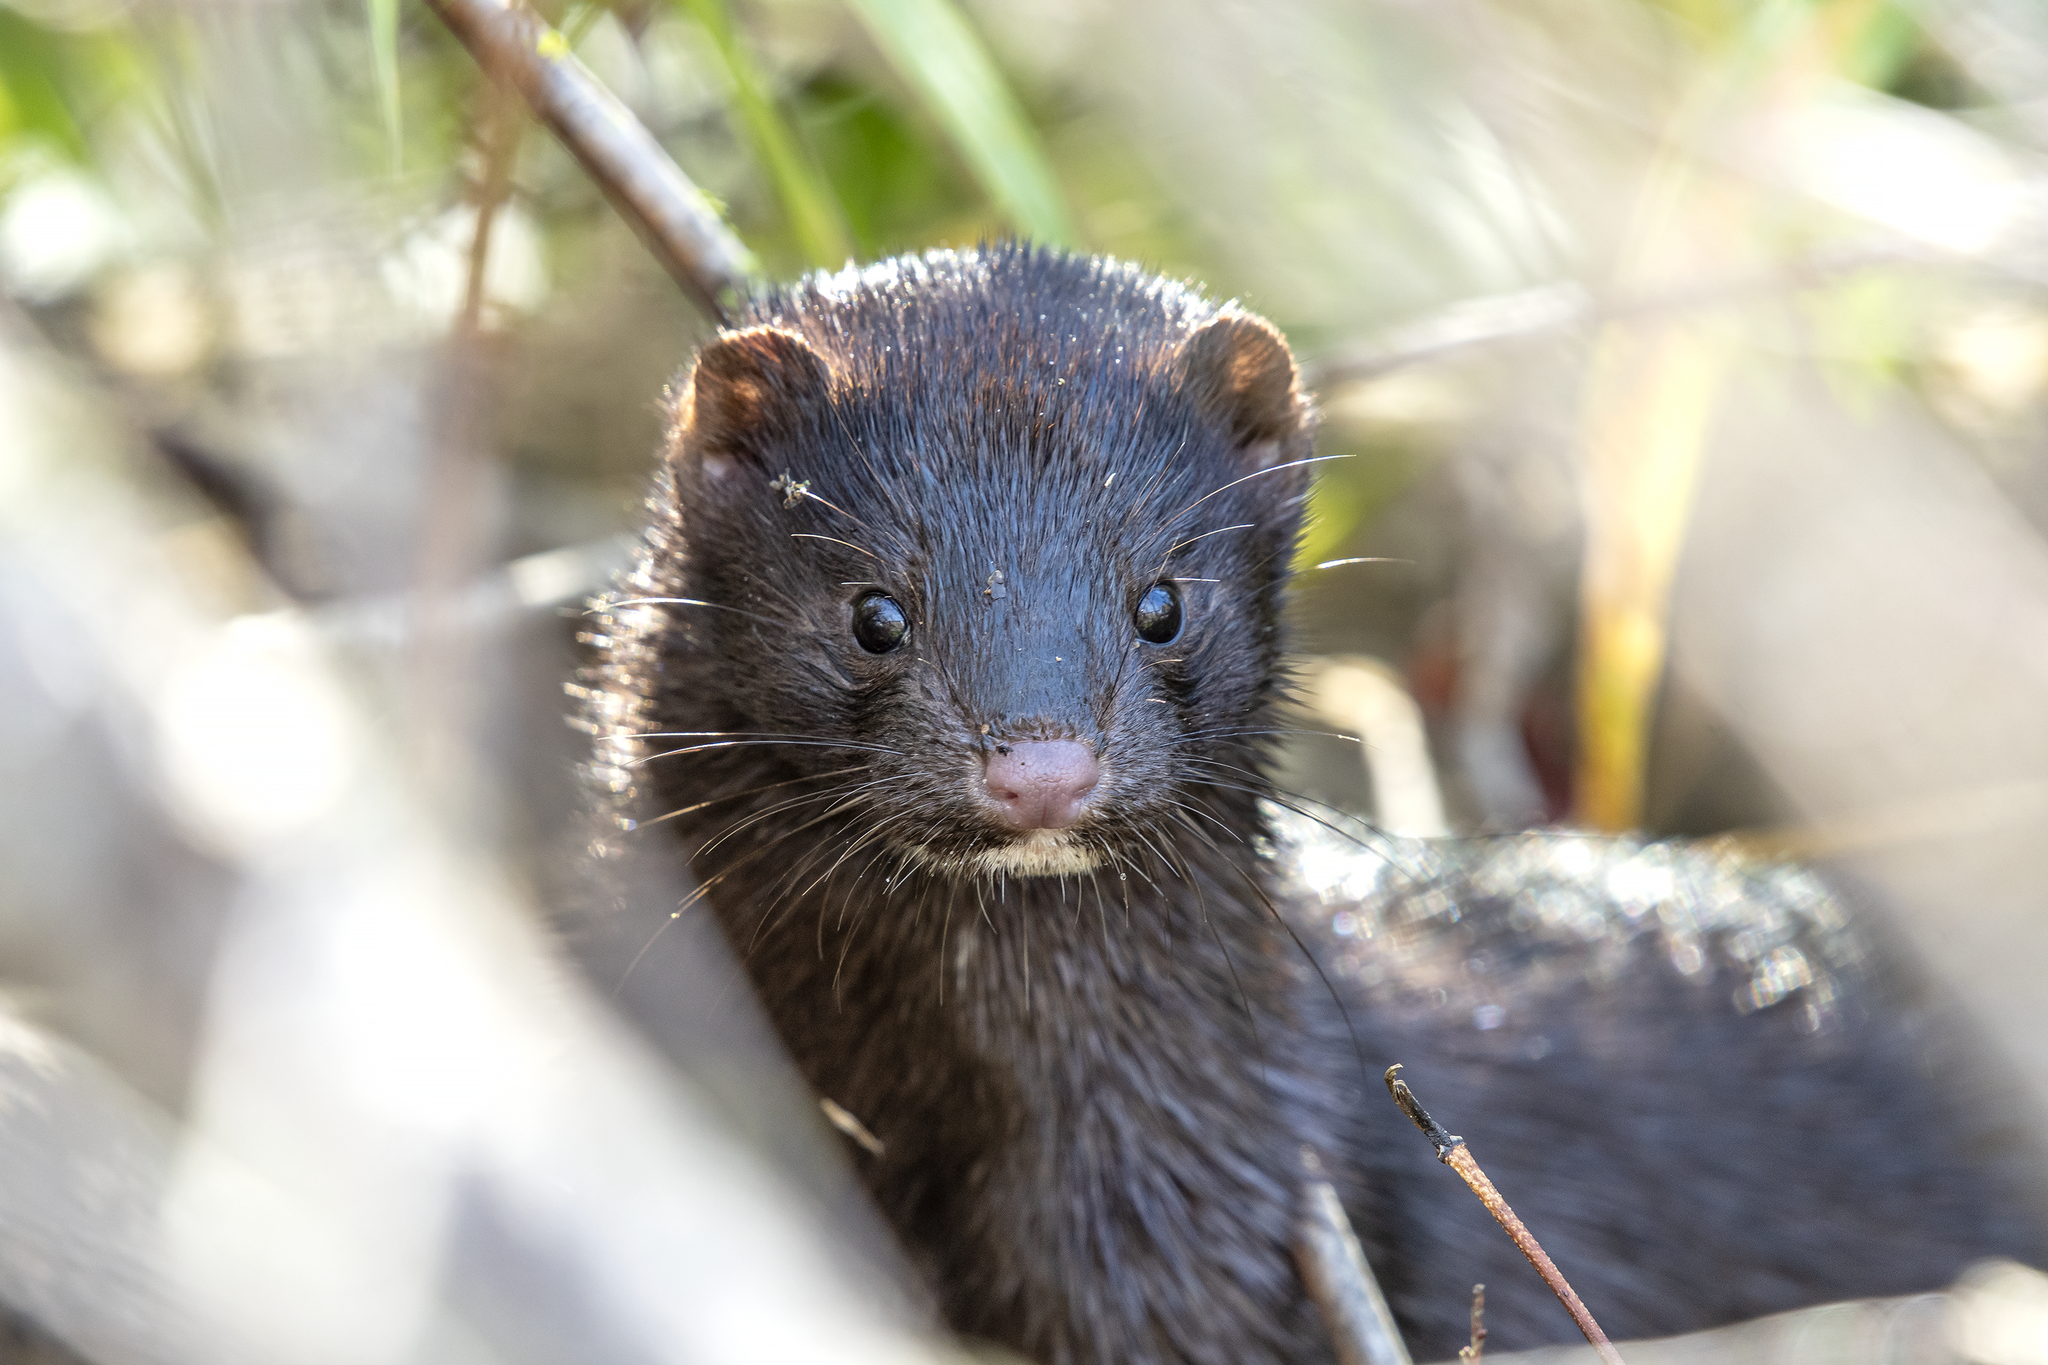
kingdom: Animalia
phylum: Chordata
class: Mammalia
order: Carnivora
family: Mustelidae
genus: Mustela
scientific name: Mustela
